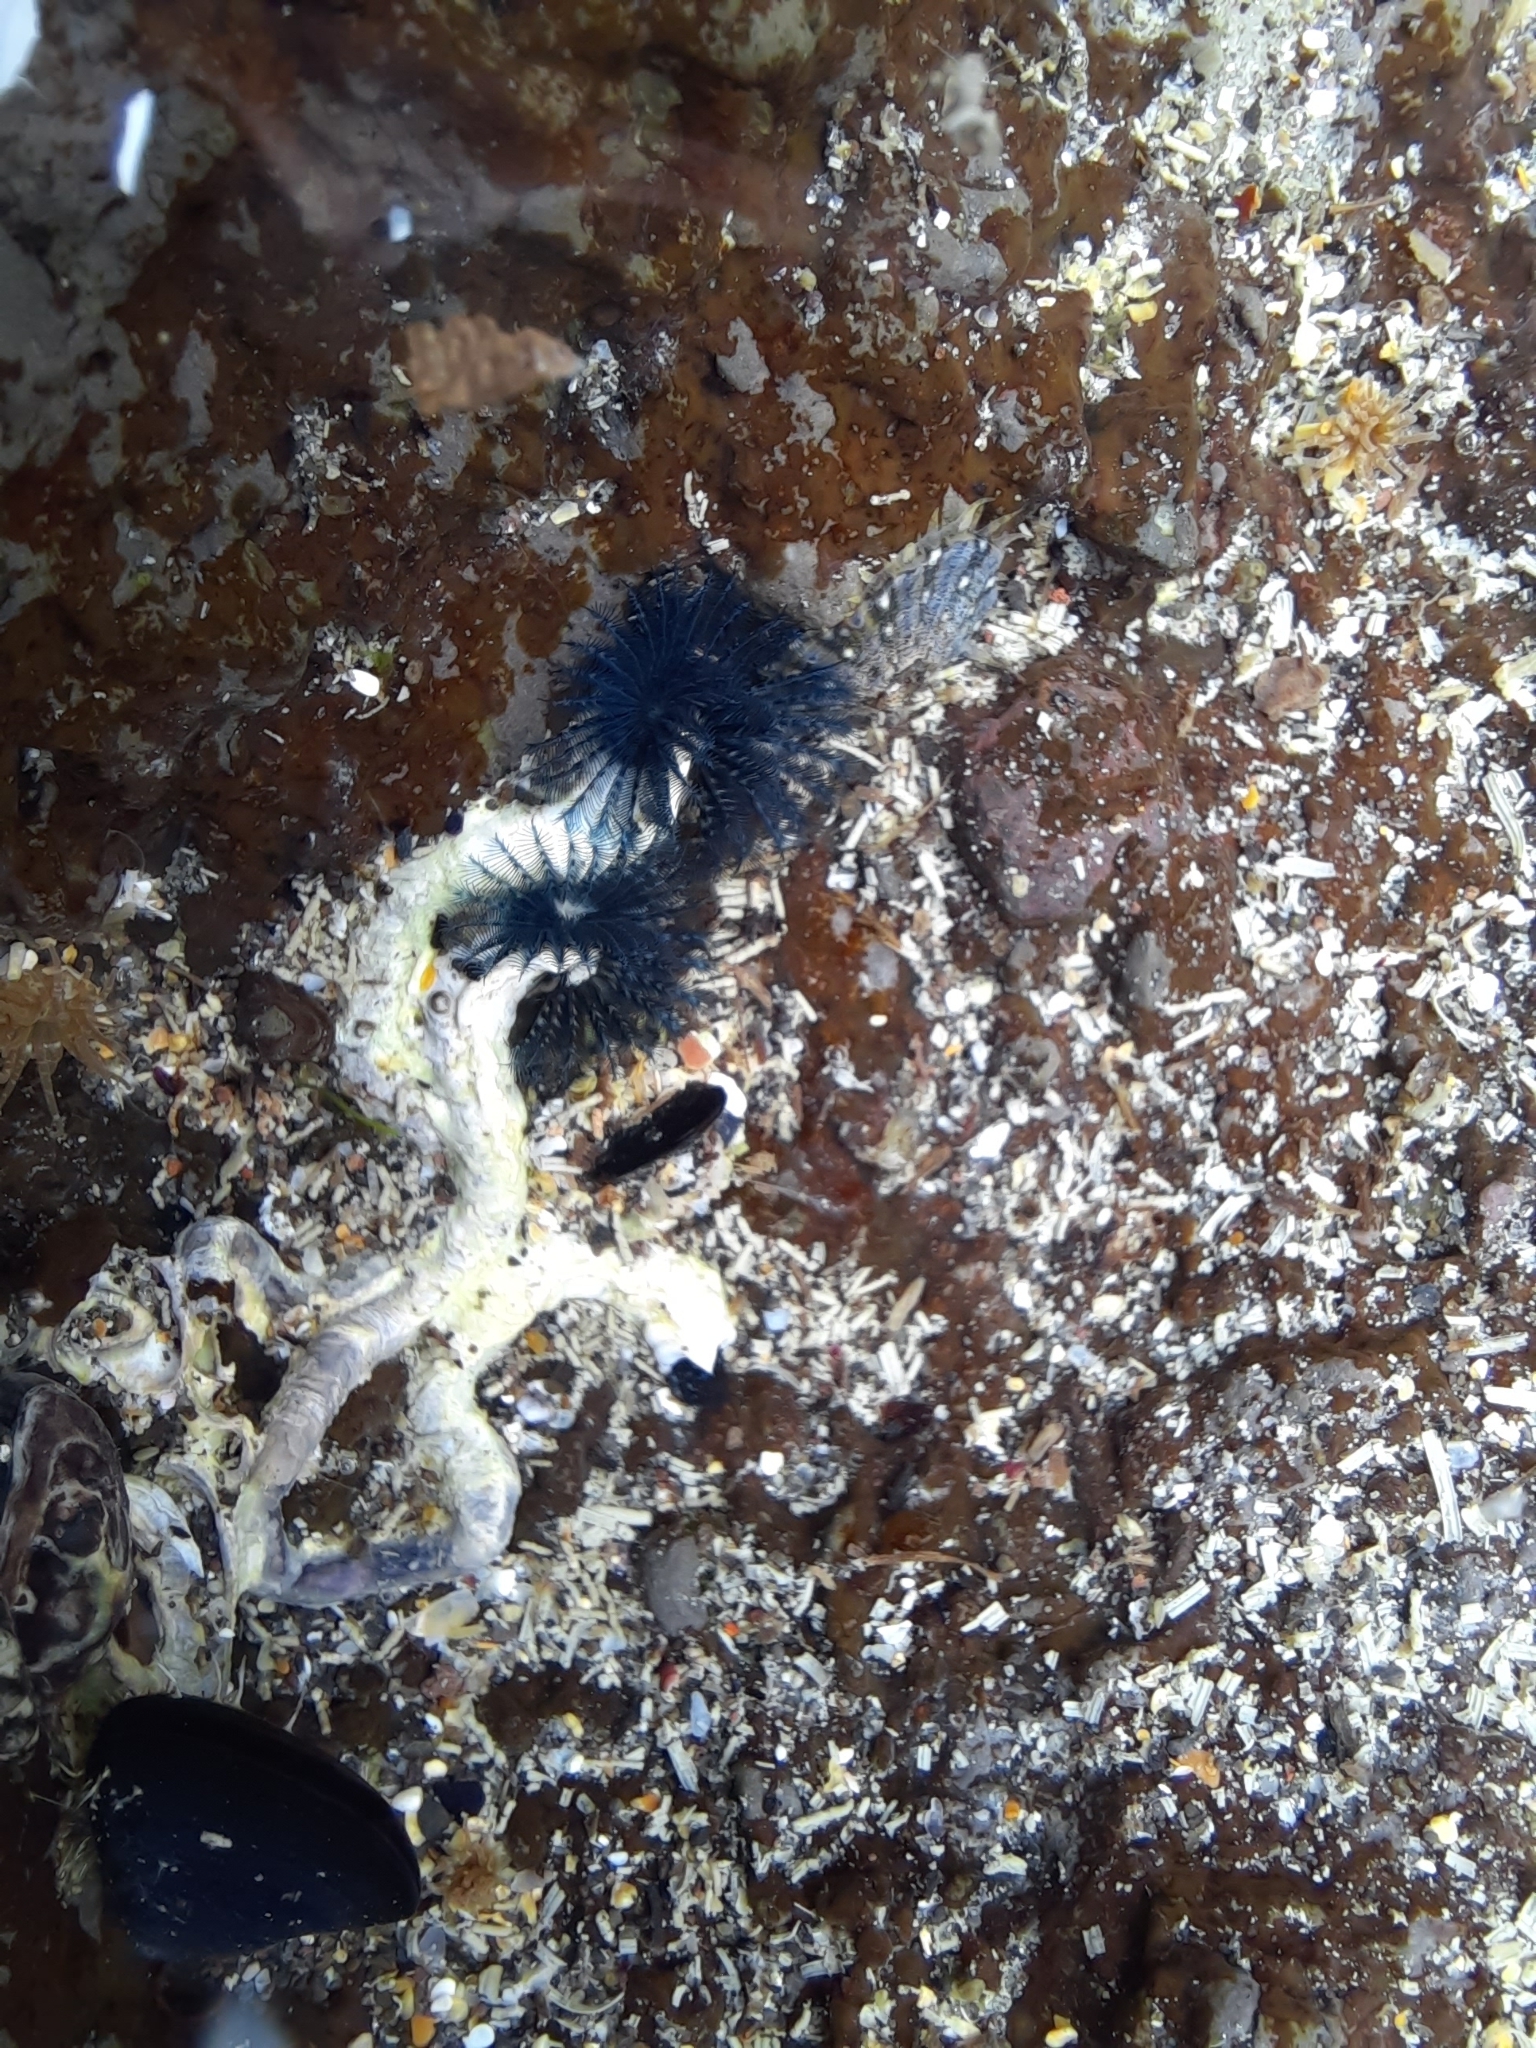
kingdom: Animalia
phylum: Annelida
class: Polychaeta
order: Sabellida
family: Serpulidae
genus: Spirobranchus
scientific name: Spirobranchus cariniferus
